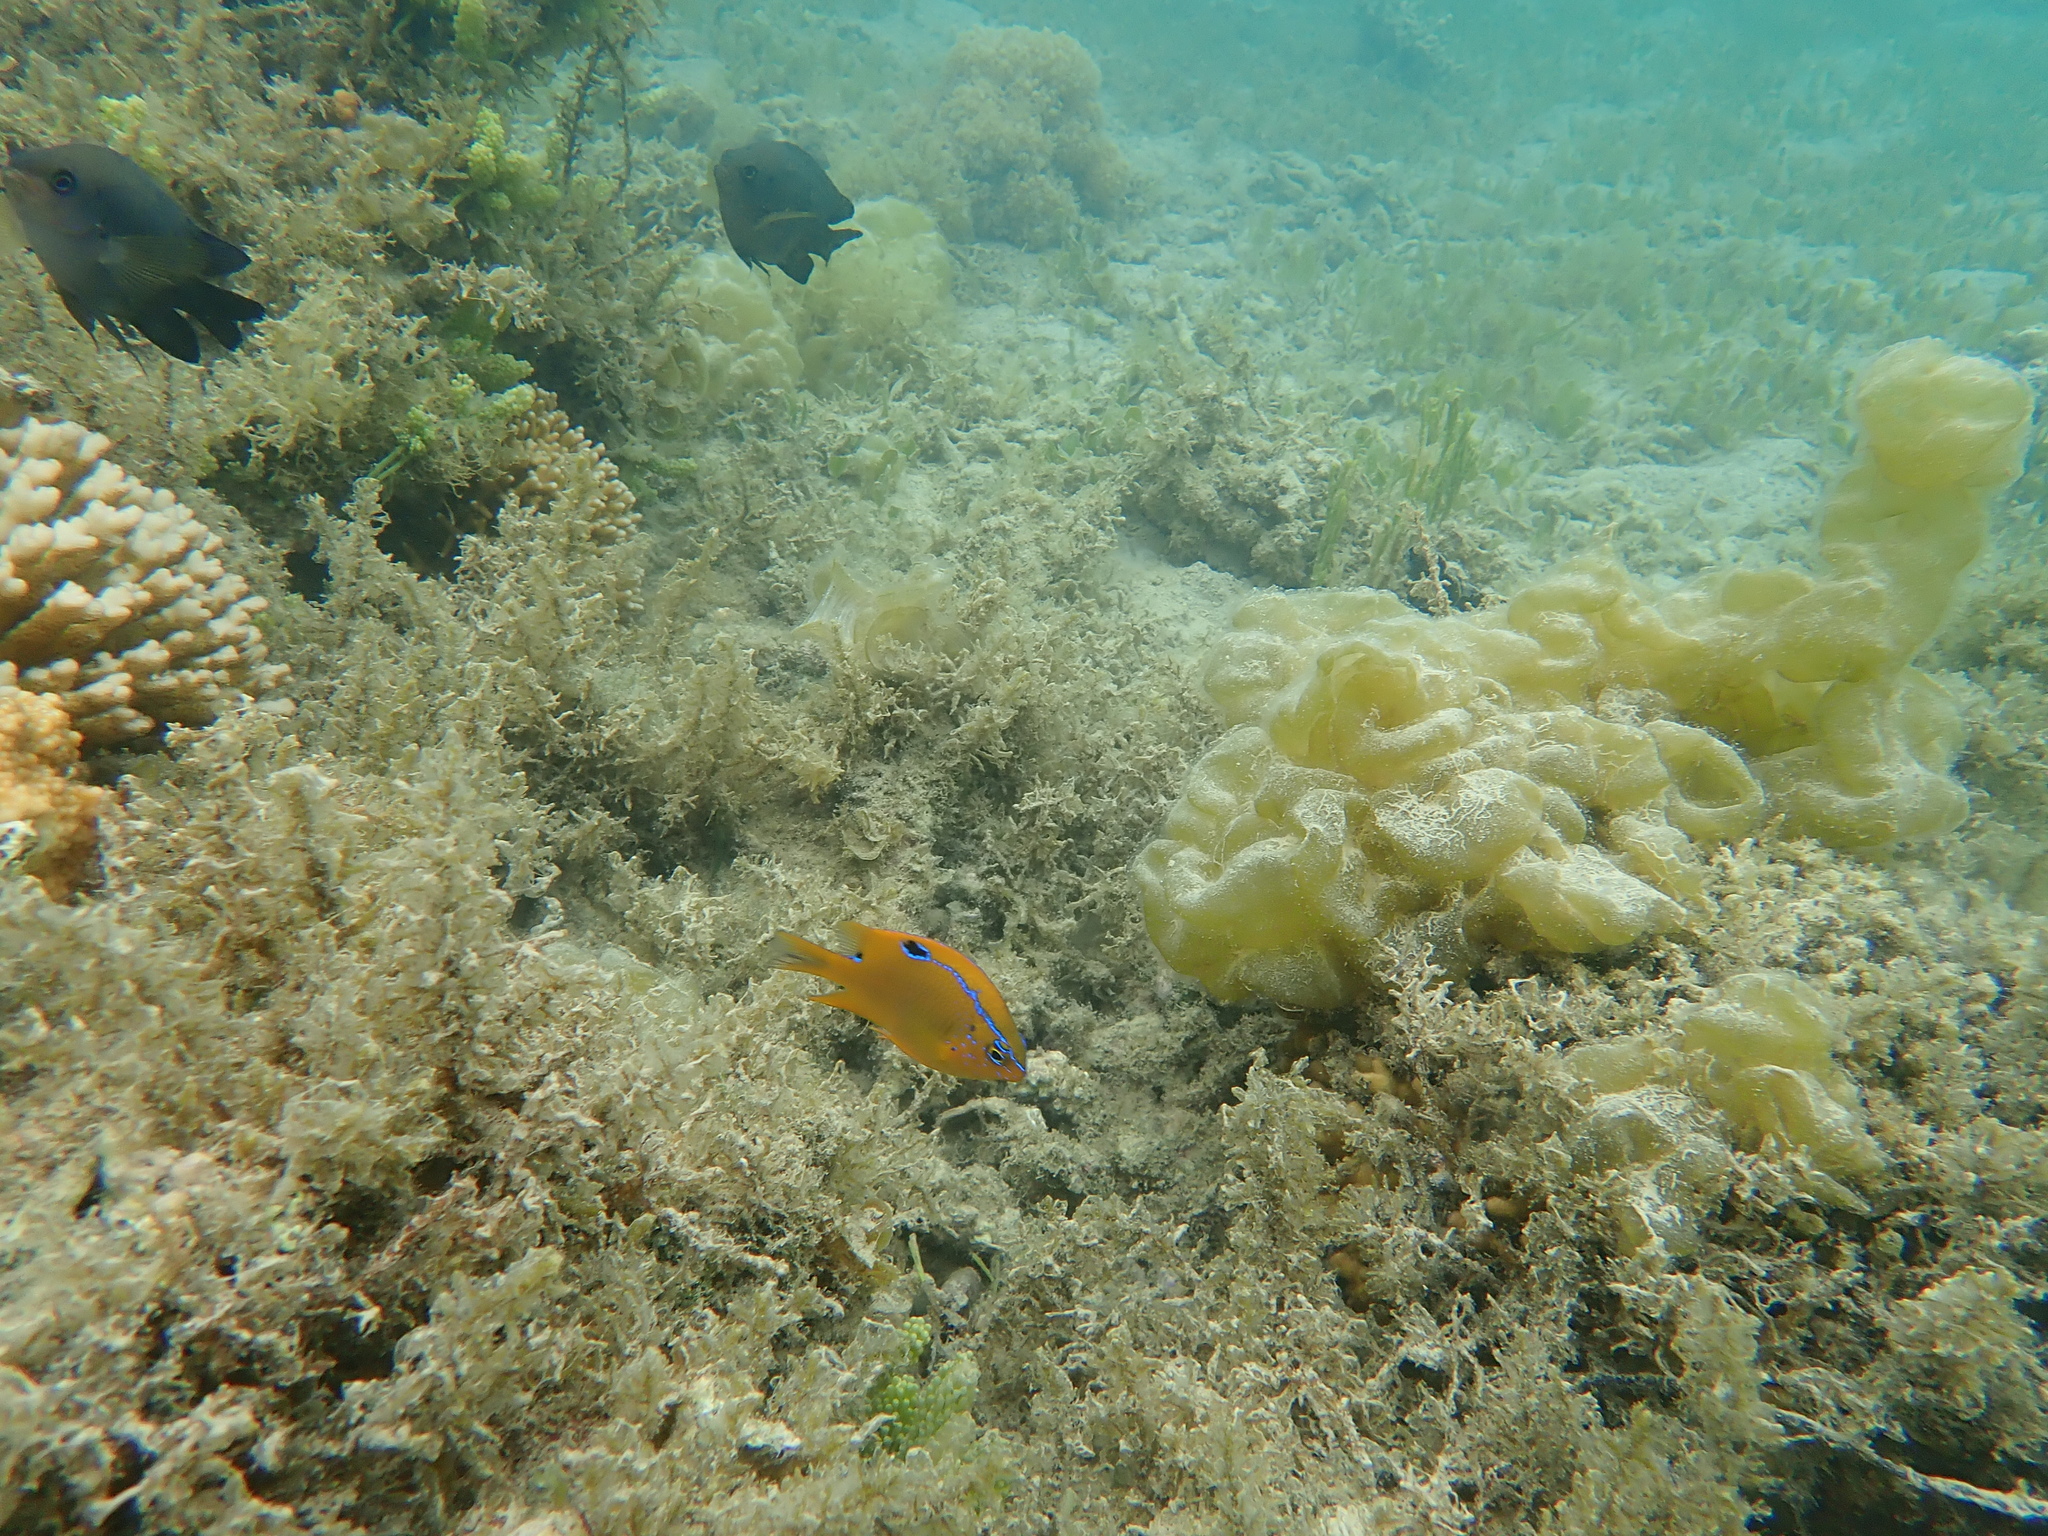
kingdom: Animalia
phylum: Chordata
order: Perciformes
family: Pomacentridae
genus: Neoglyphidodon
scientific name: Neoglyphidodon polyacanthus
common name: Multi-spined damsel
